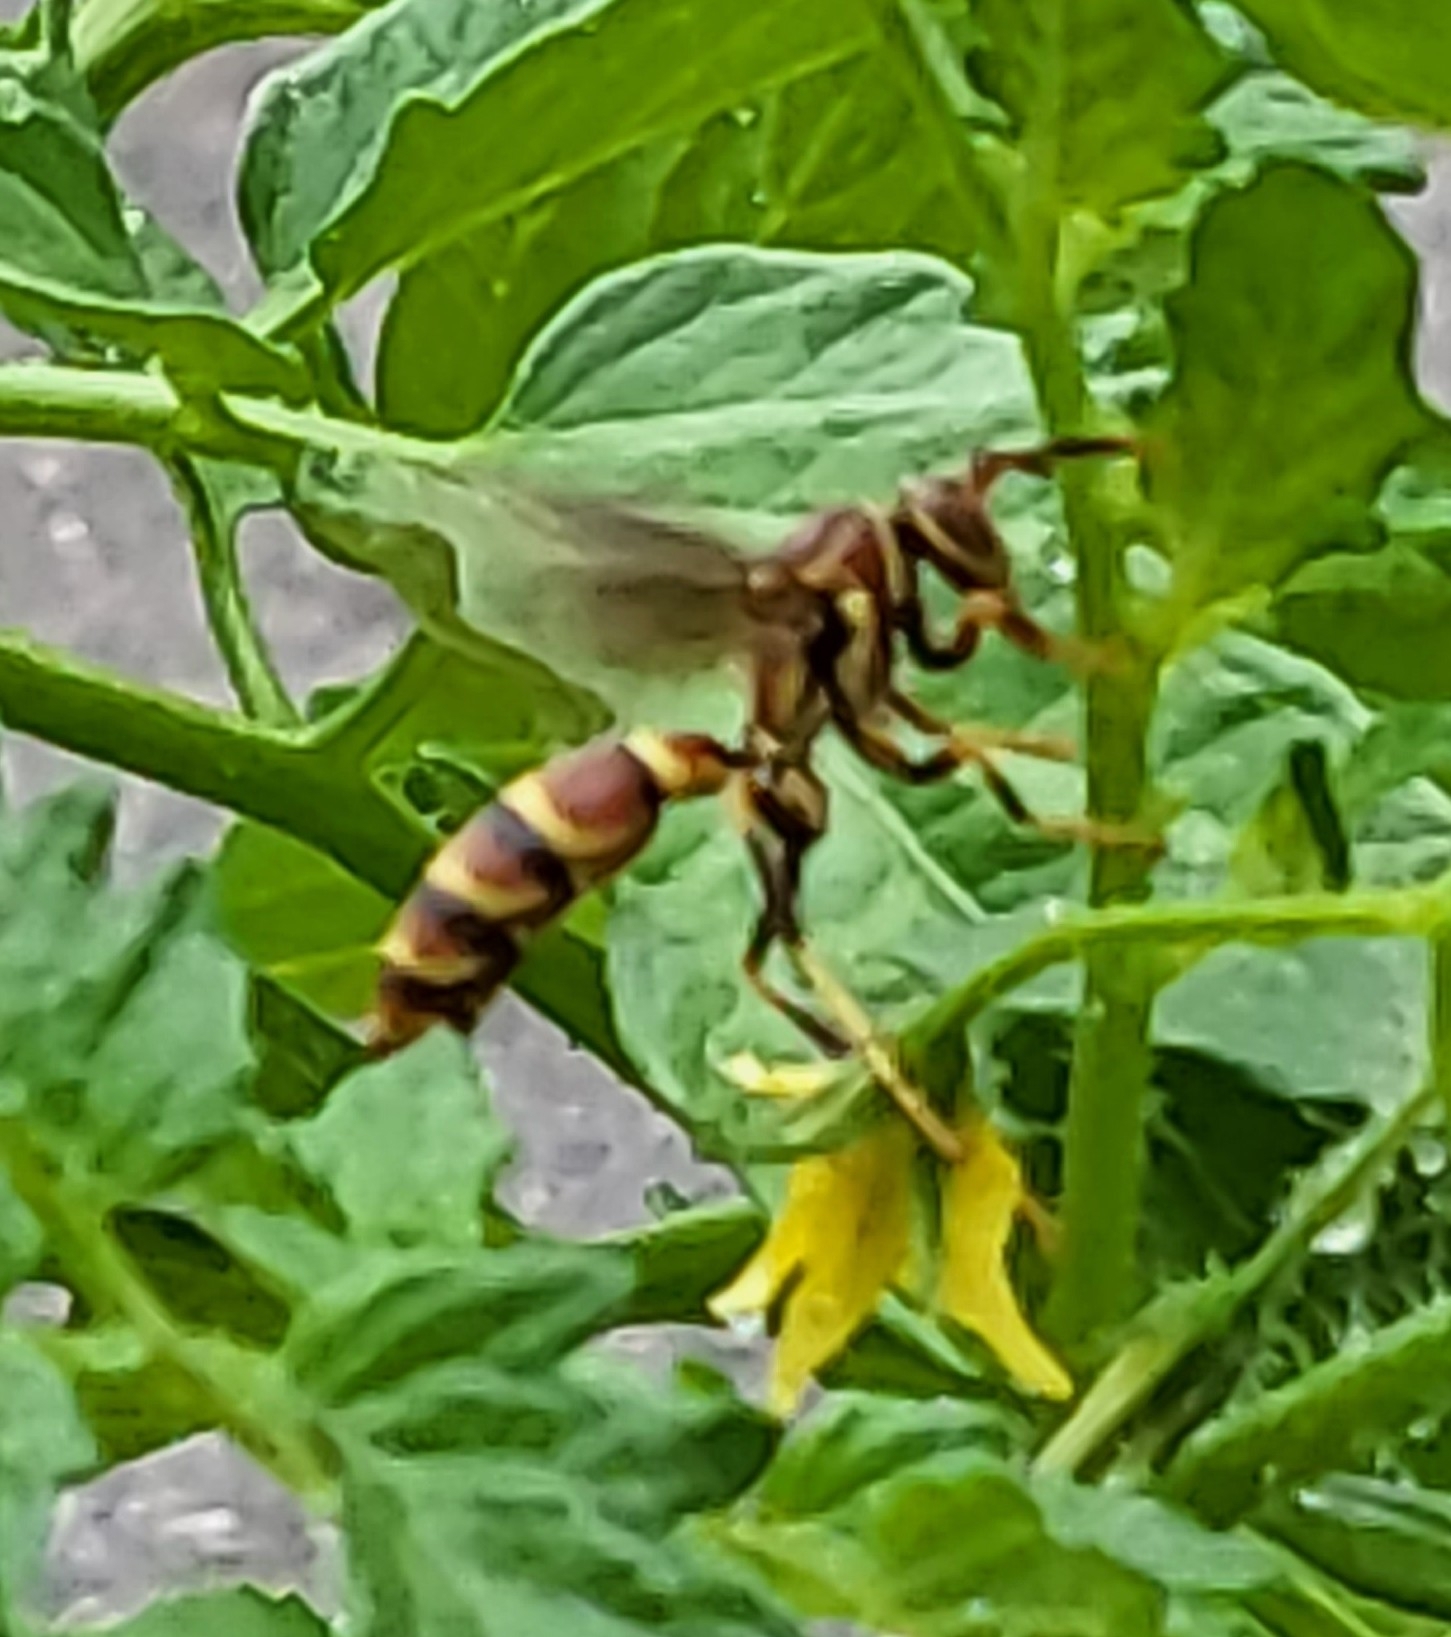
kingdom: Animalia
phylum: Arthropoda
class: Insecta
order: Hymenoptera
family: Eumenidae
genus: Polistes
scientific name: Polistes exclamans
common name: Paper wasp
